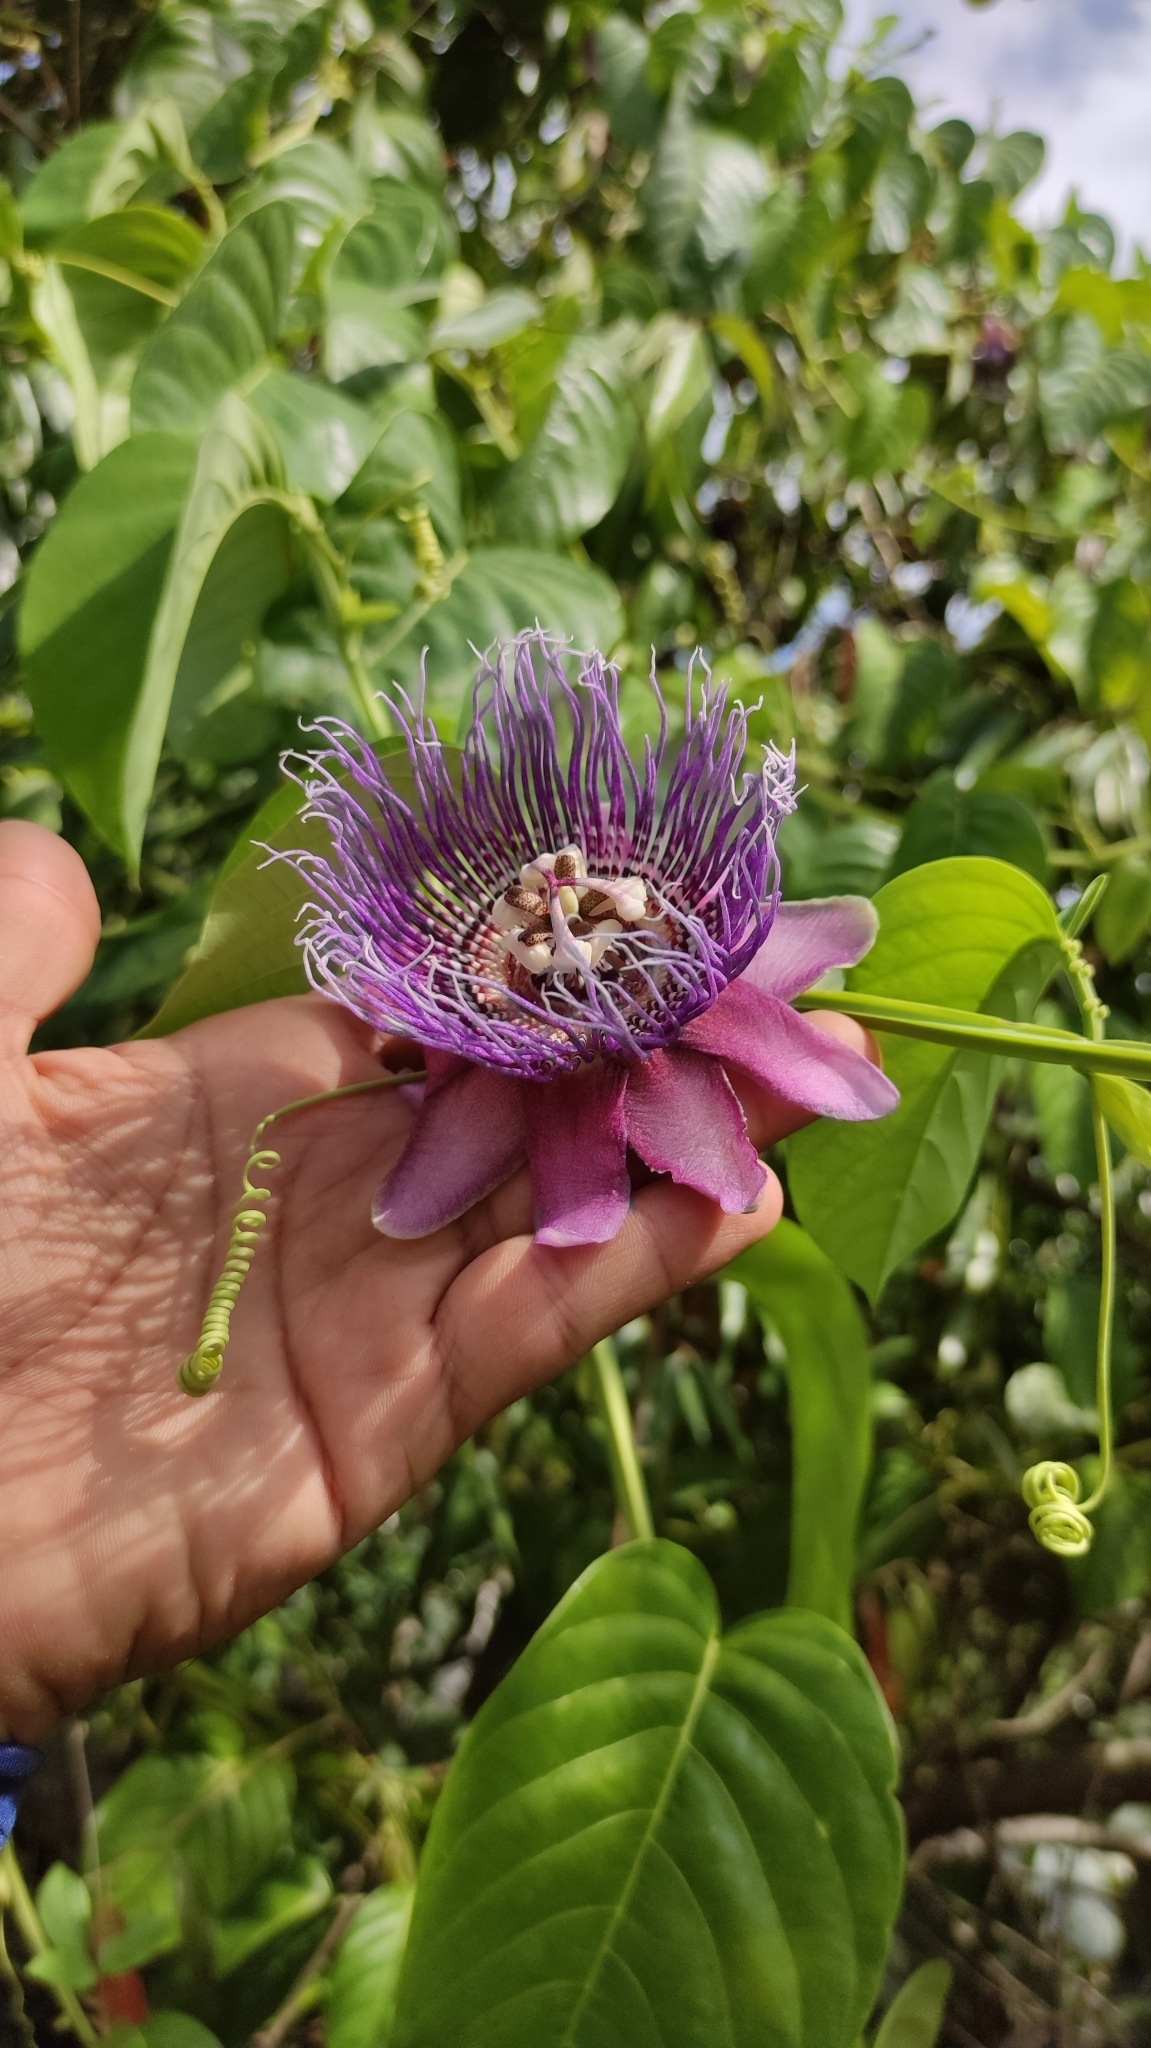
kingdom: Plantae
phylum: Tracheophyta
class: Magnoliopsida
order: Malpighiales
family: Passifloraceae
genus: Passiflora
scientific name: Passiflora quadrangularis
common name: Giant granadilla
